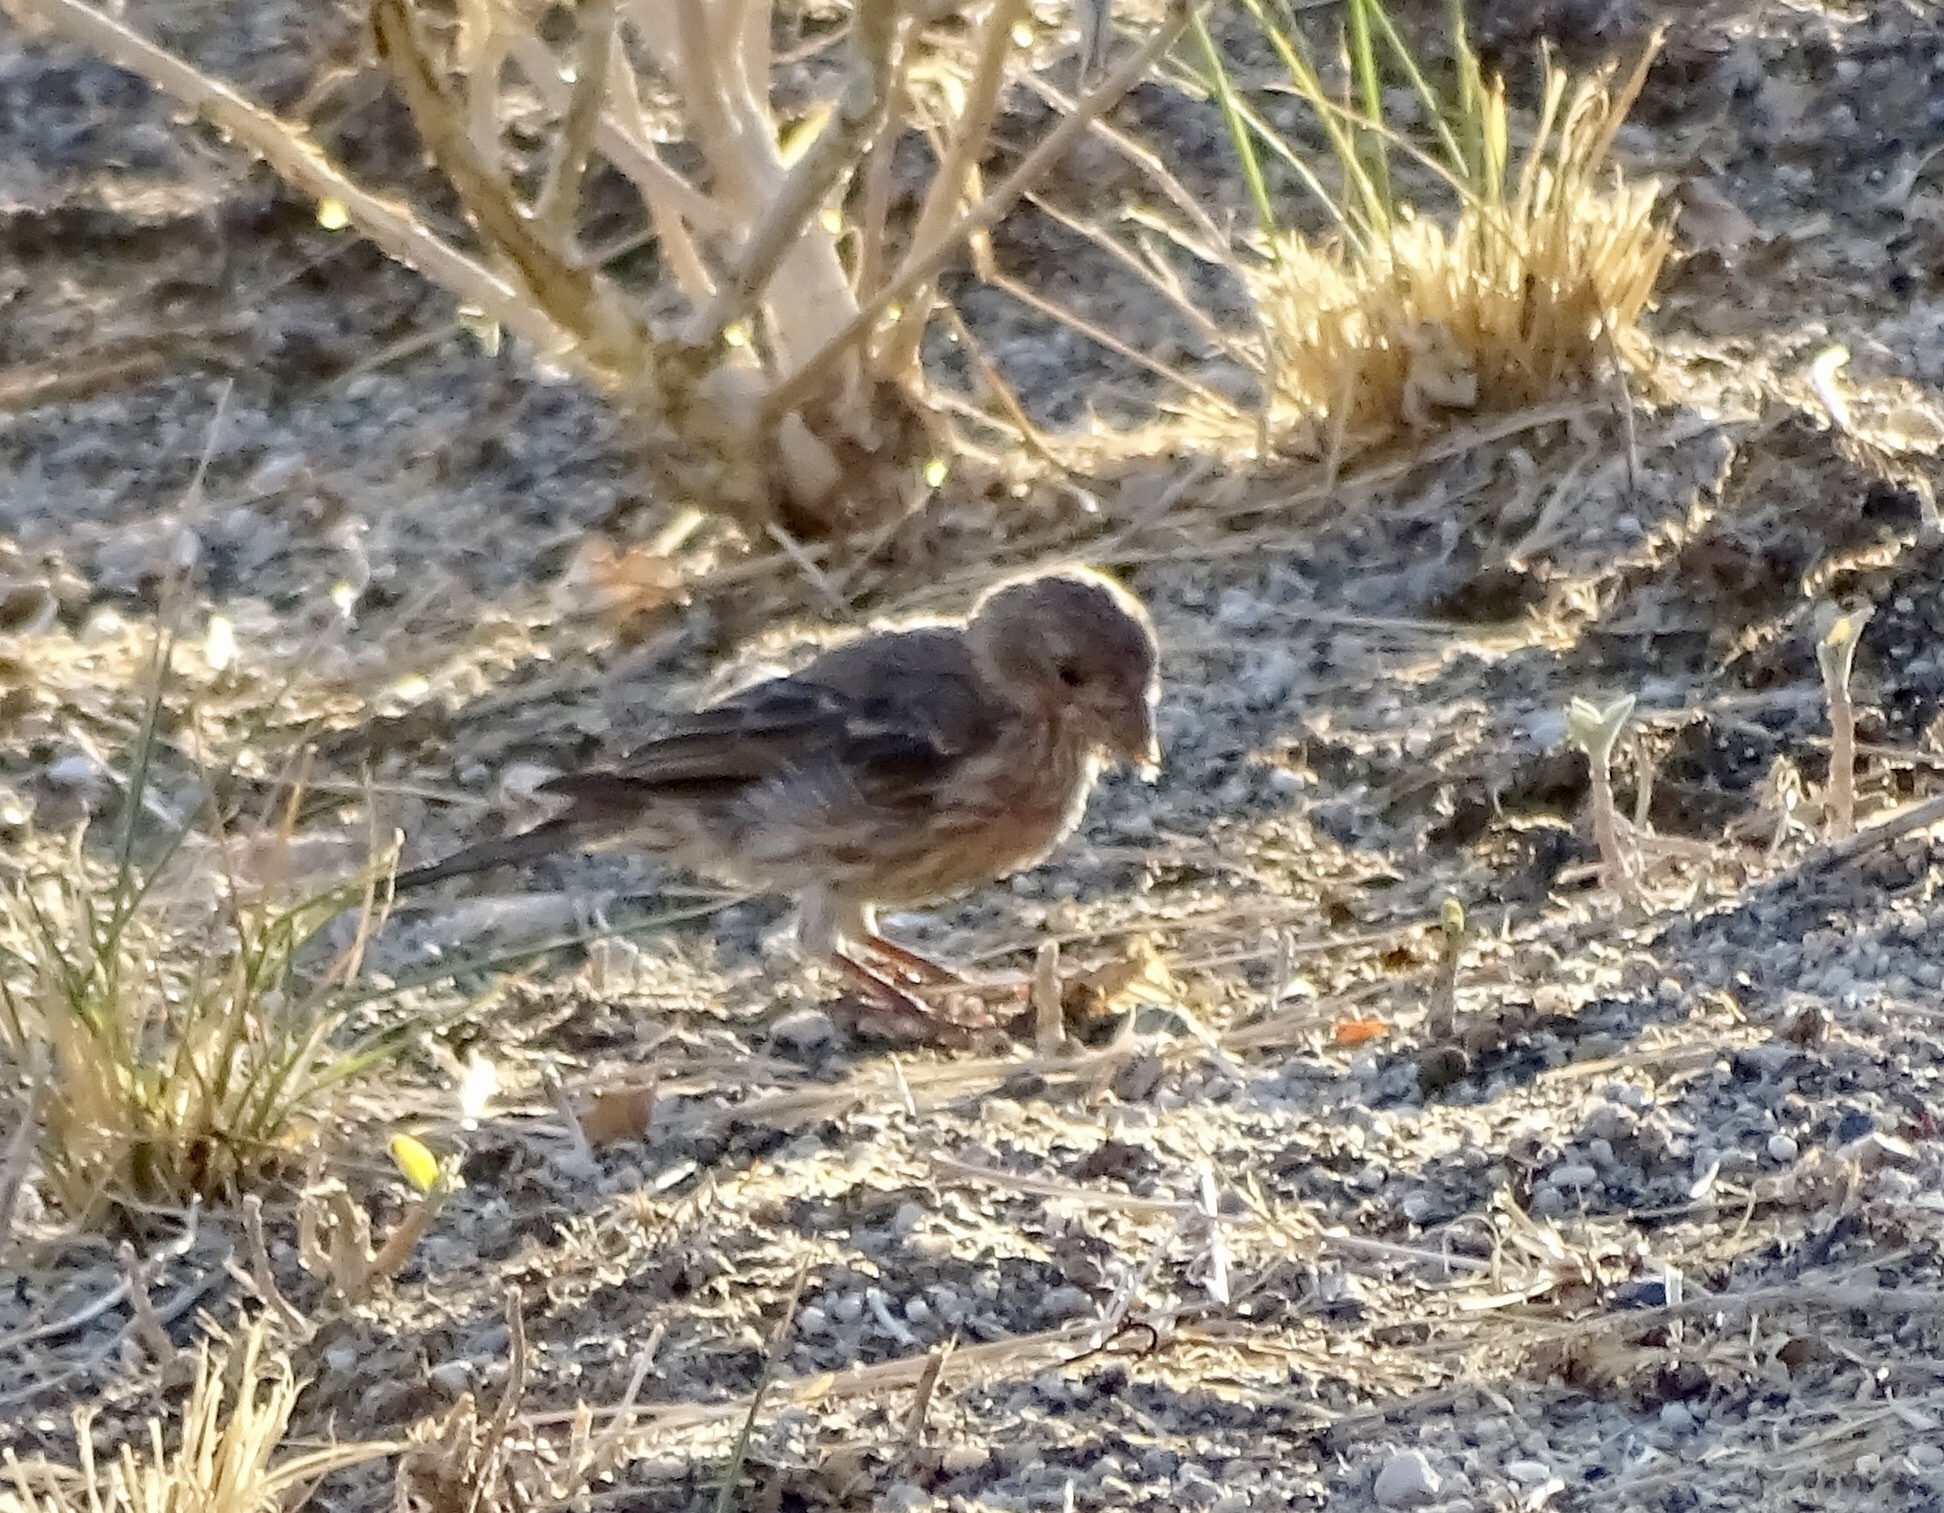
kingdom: Animalia
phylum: Chordata
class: Aves
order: Passeriformes
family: Fringillidae
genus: Haemorhous
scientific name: Haemorhous mexicanus
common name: House finch
